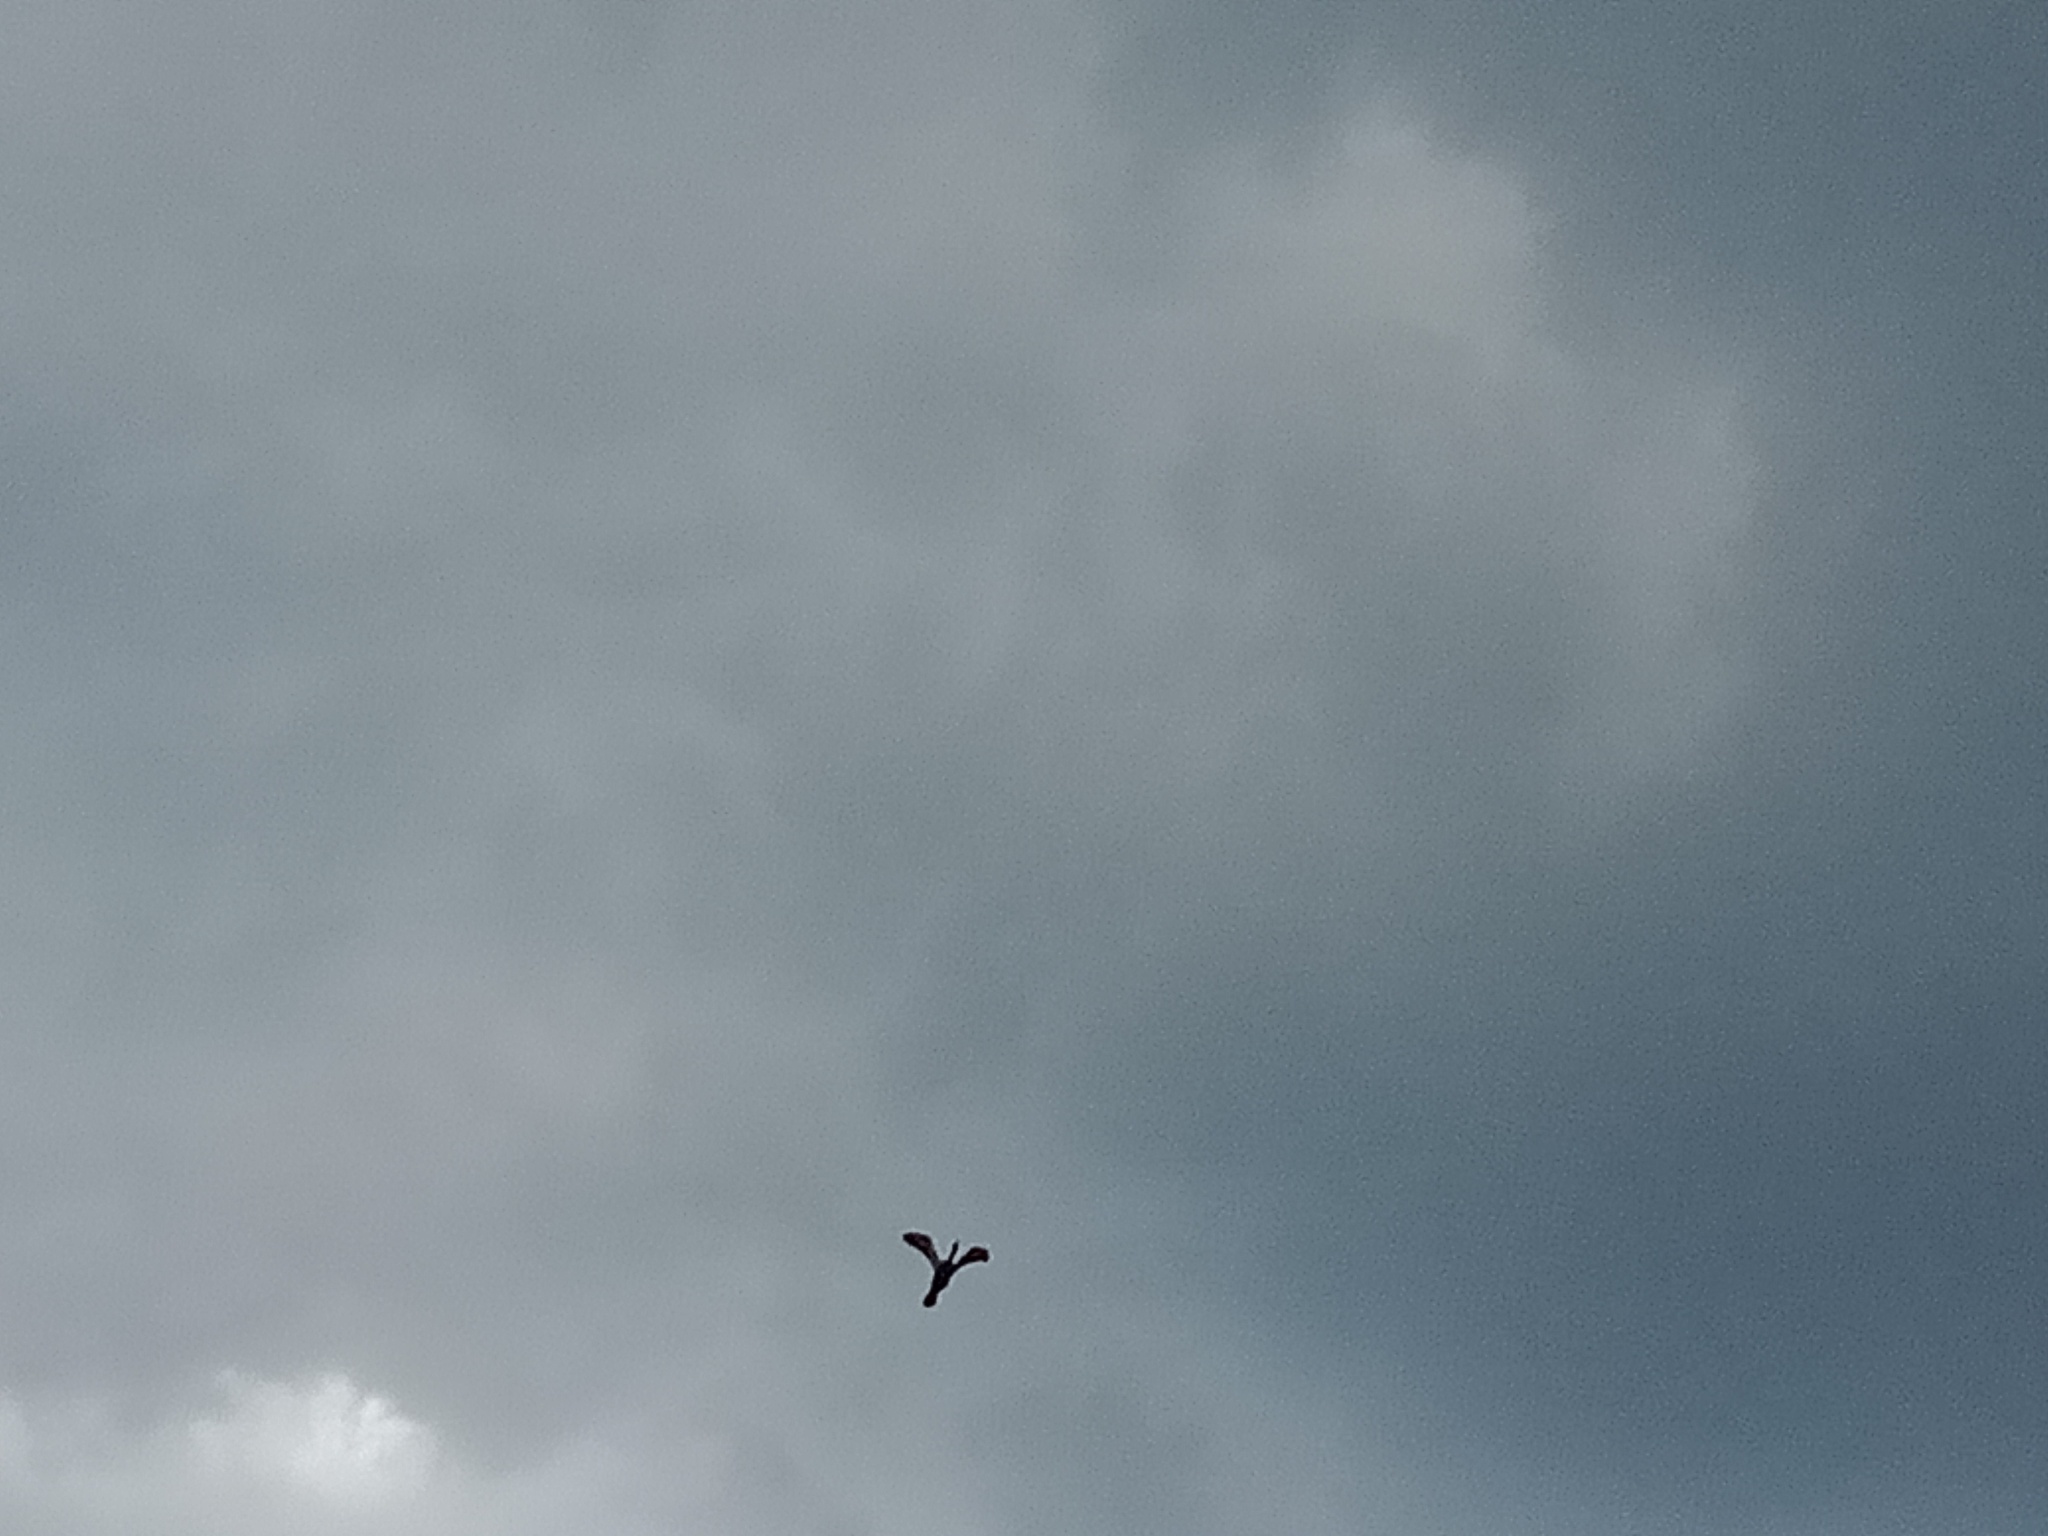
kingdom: Animalia
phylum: Chordata
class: Aves
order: Suliformes
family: Anhingidae
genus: Anhinga
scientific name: Anhinga novaehollandiae
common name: Australasian darter
